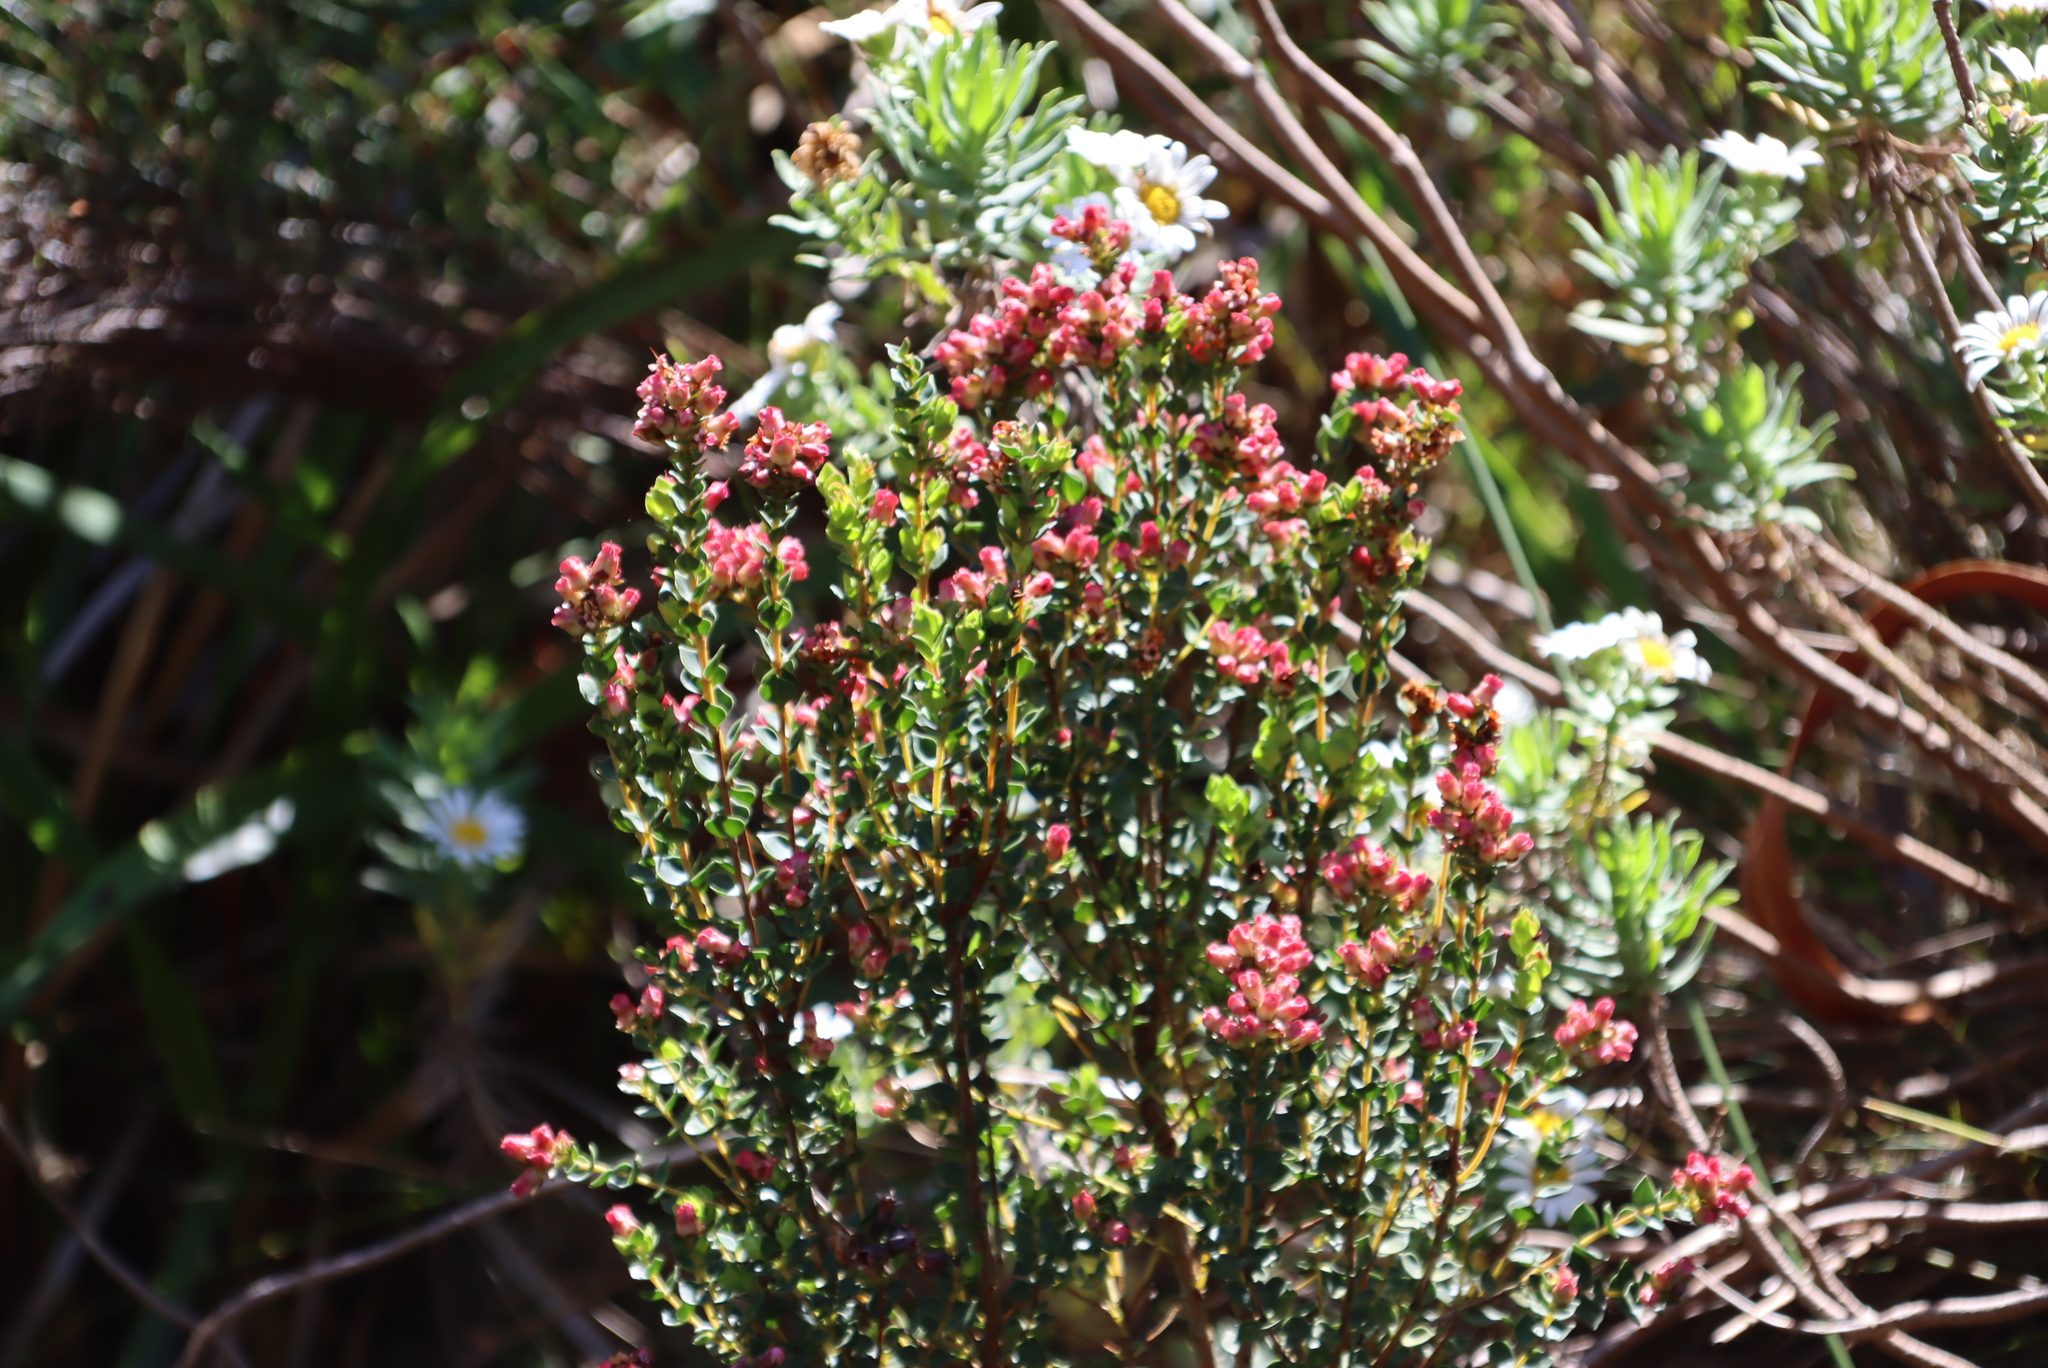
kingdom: Plantae
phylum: Tracheophyta
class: Magnoliopsida
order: Myrtales
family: Penaeaceae
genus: Brachysiphon
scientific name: Brachysiphon fucatus
